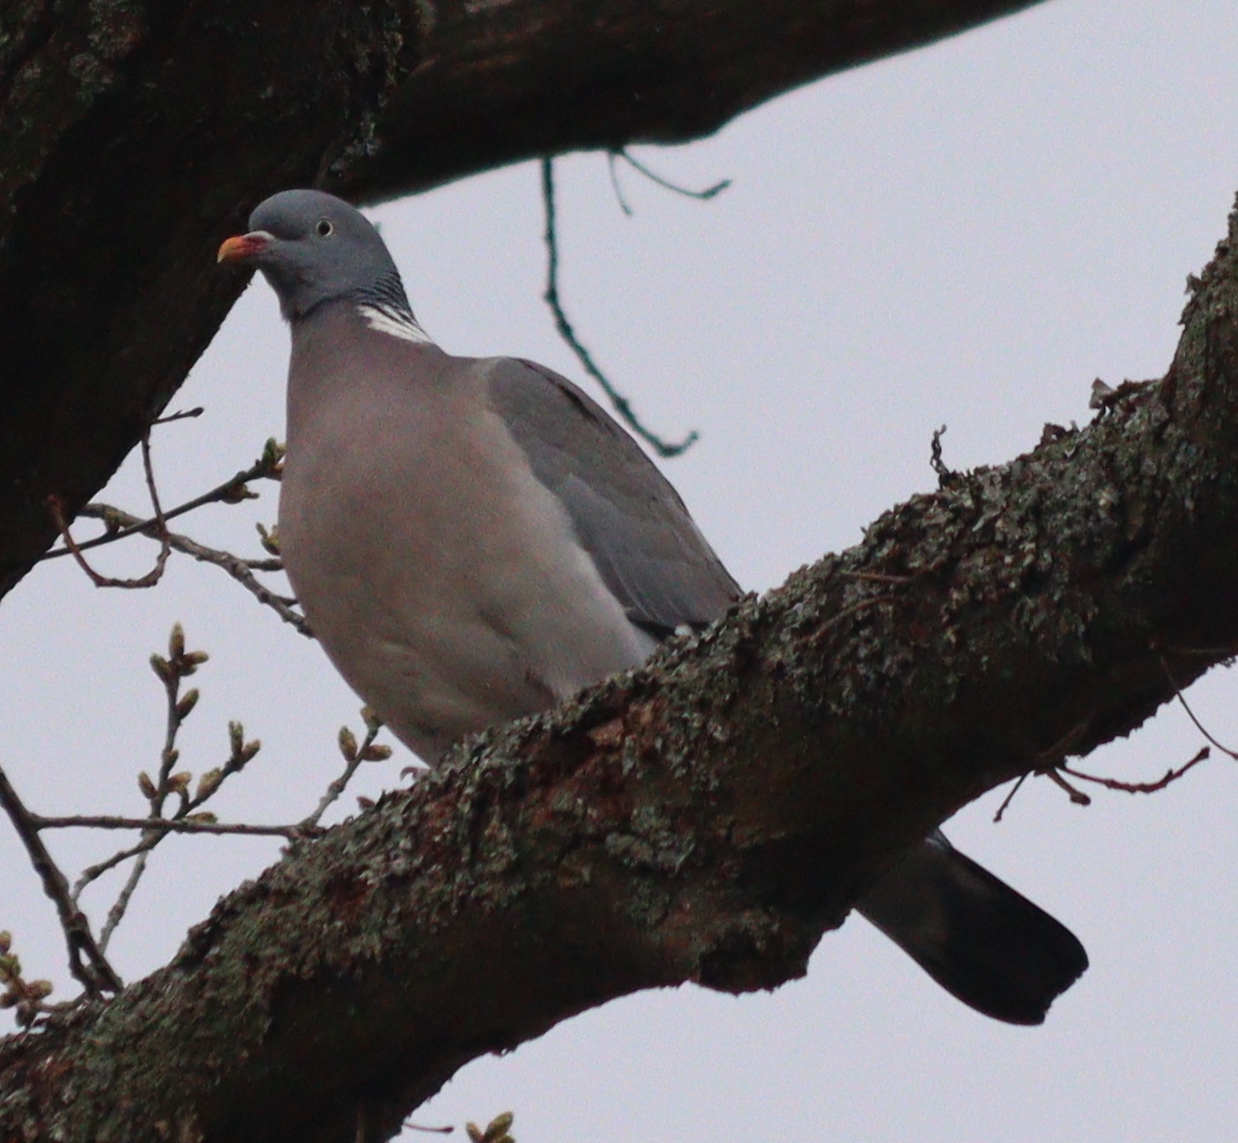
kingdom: Animalia
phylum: Chordata
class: Aves
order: Columbiformes
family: Columbidae
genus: Columba
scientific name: Columba palumbus
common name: Common wood pigeon
